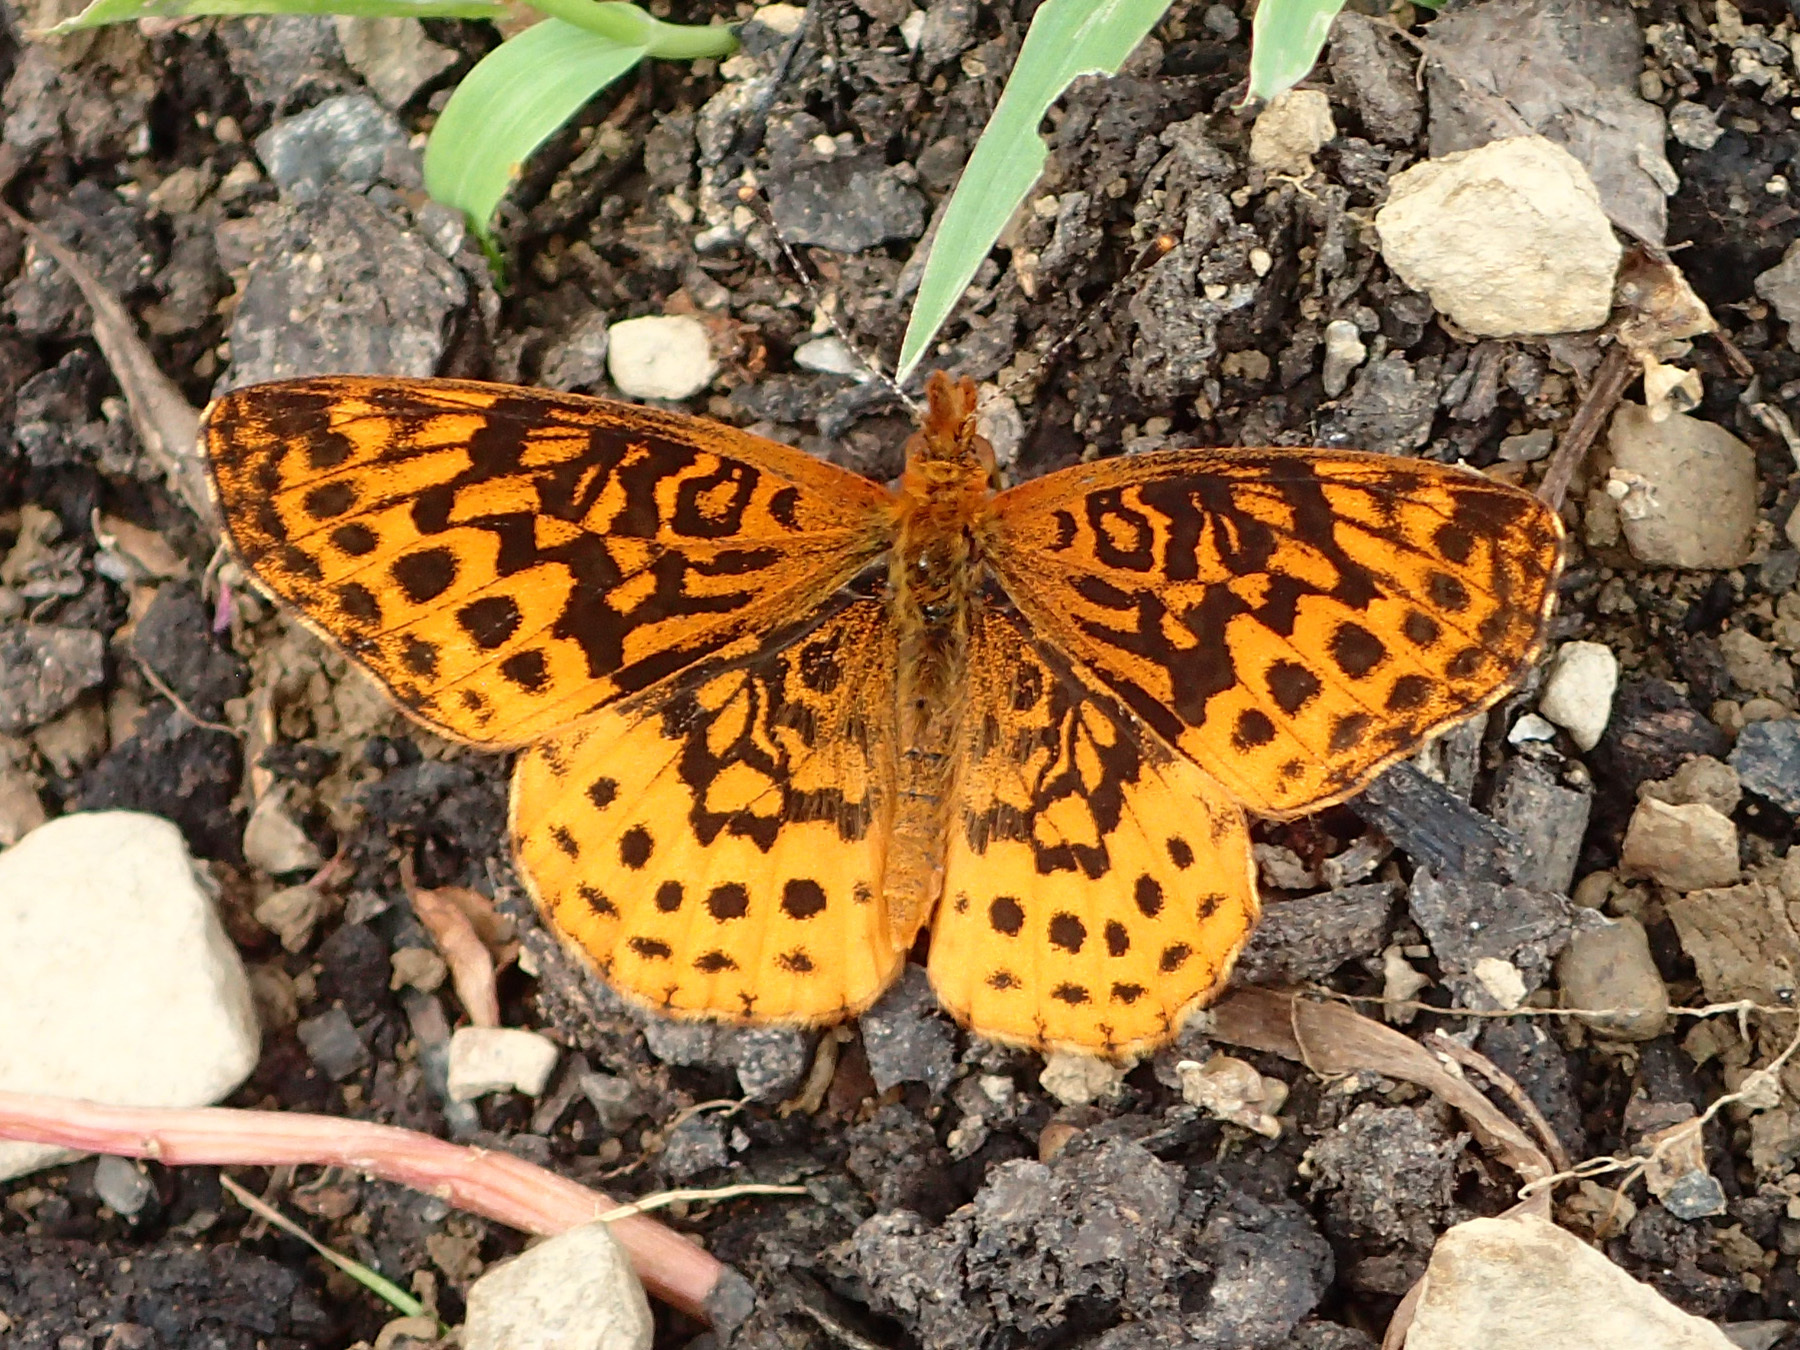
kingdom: Animalia
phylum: Arthropoda
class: Insecta
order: Lepidoptera
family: Nymphalidae
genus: Clossiana
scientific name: Clossiana toddi
